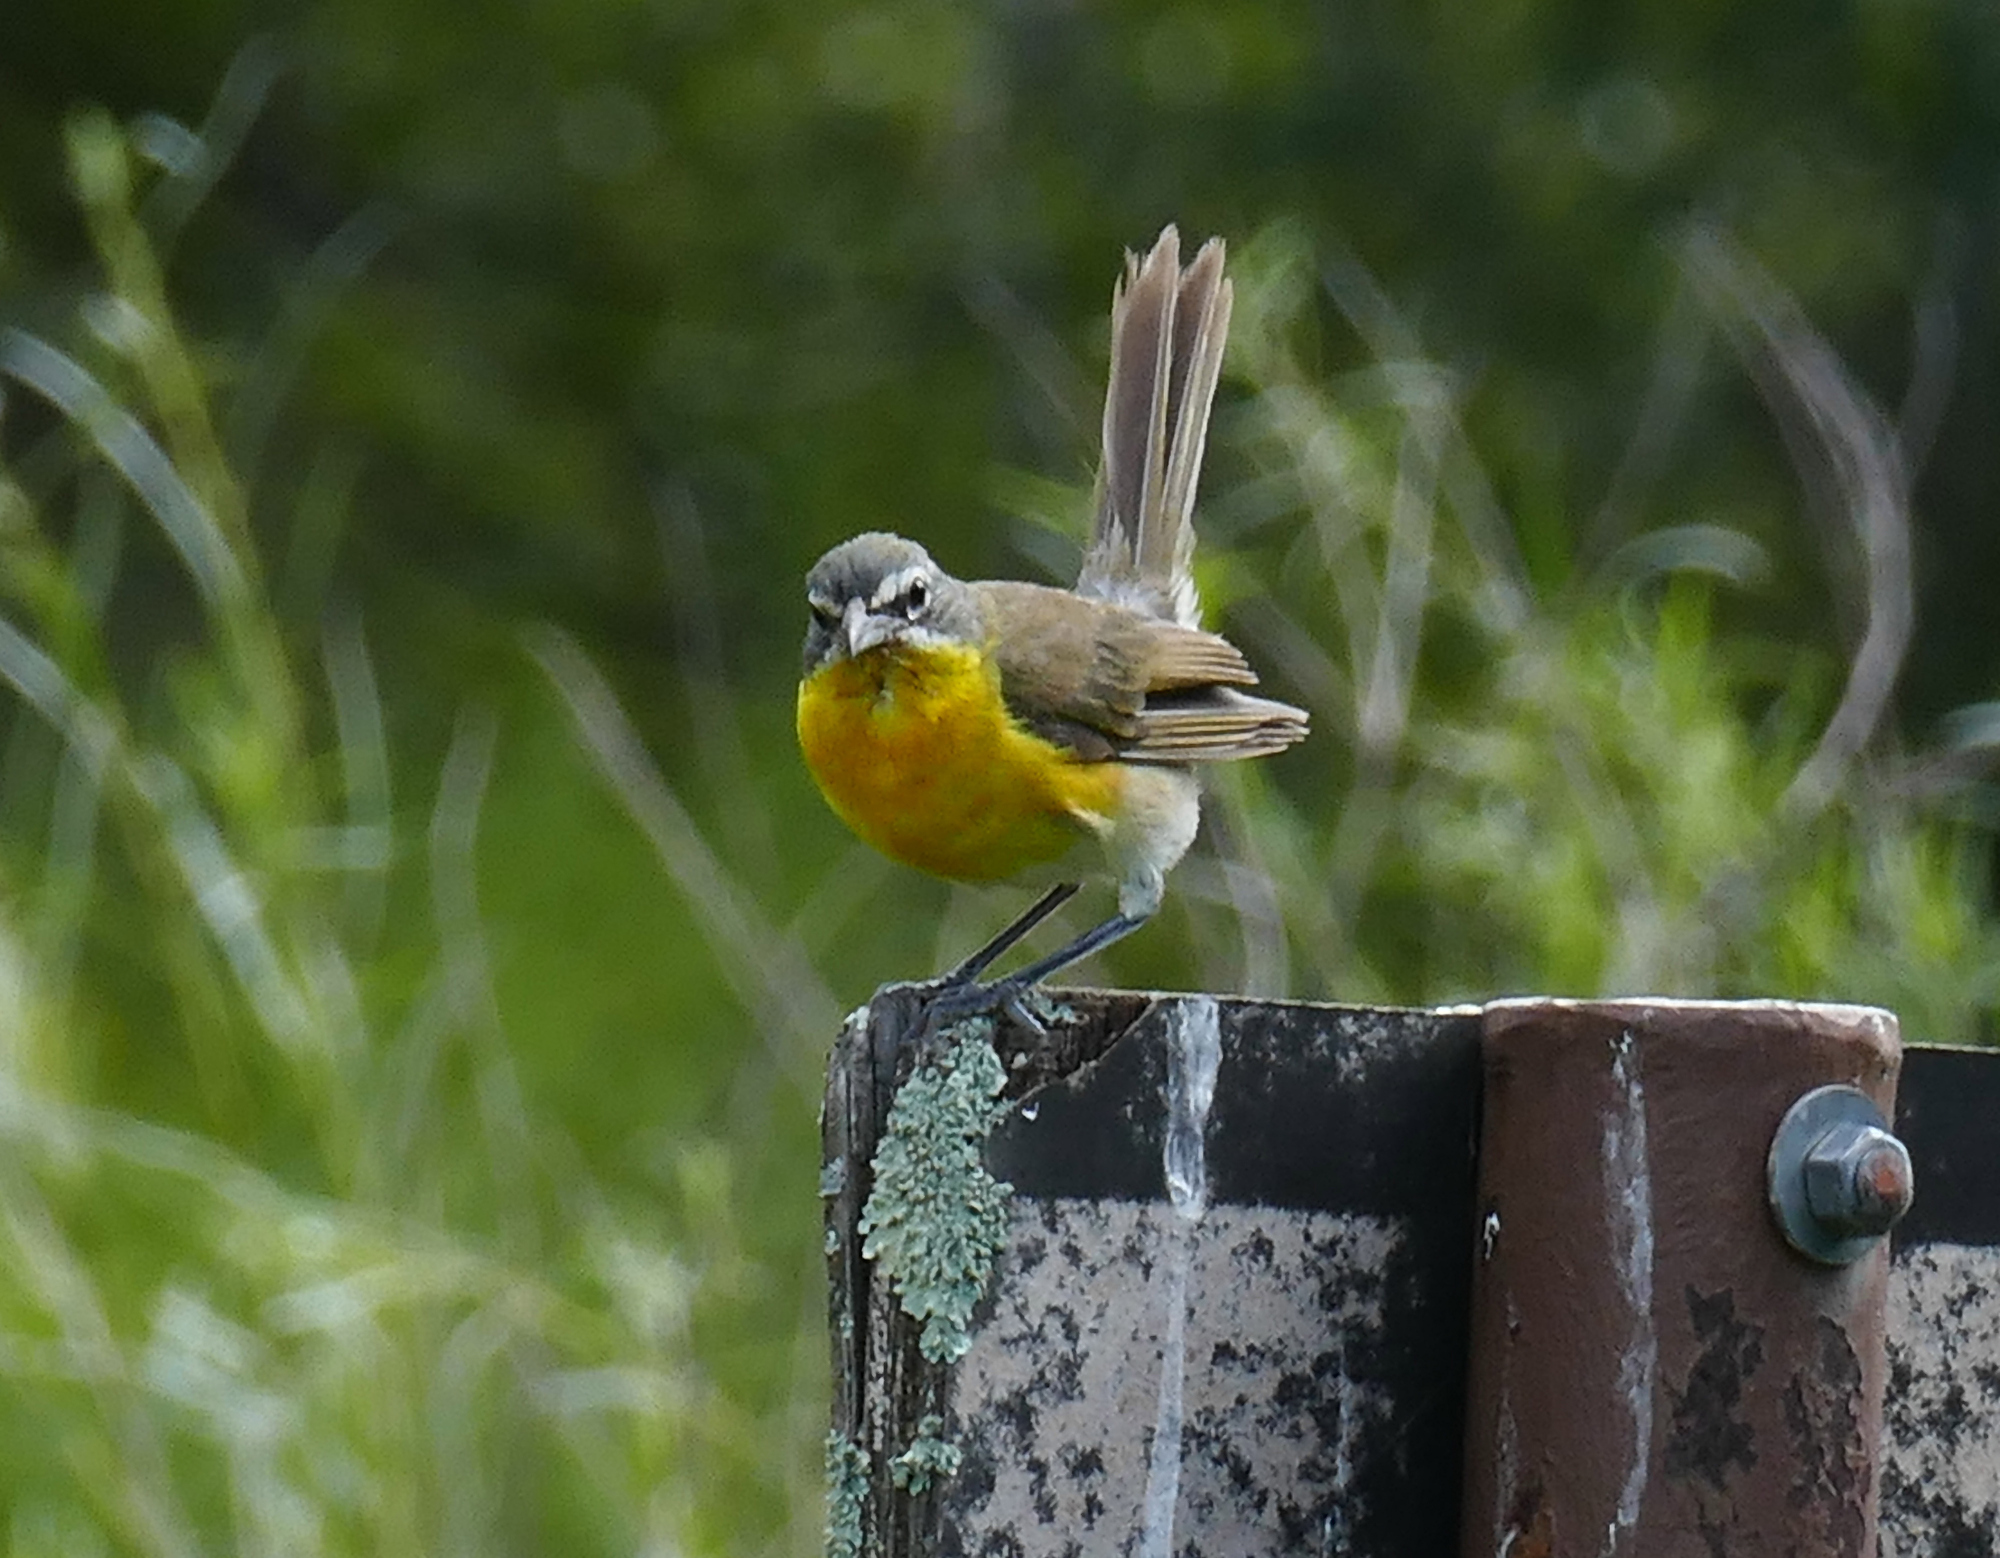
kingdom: Animalia
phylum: Chordata
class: Aves
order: Passeriformes
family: Parulidae
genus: Icteria
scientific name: Icteria virens
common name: Yellow-breasted chat
